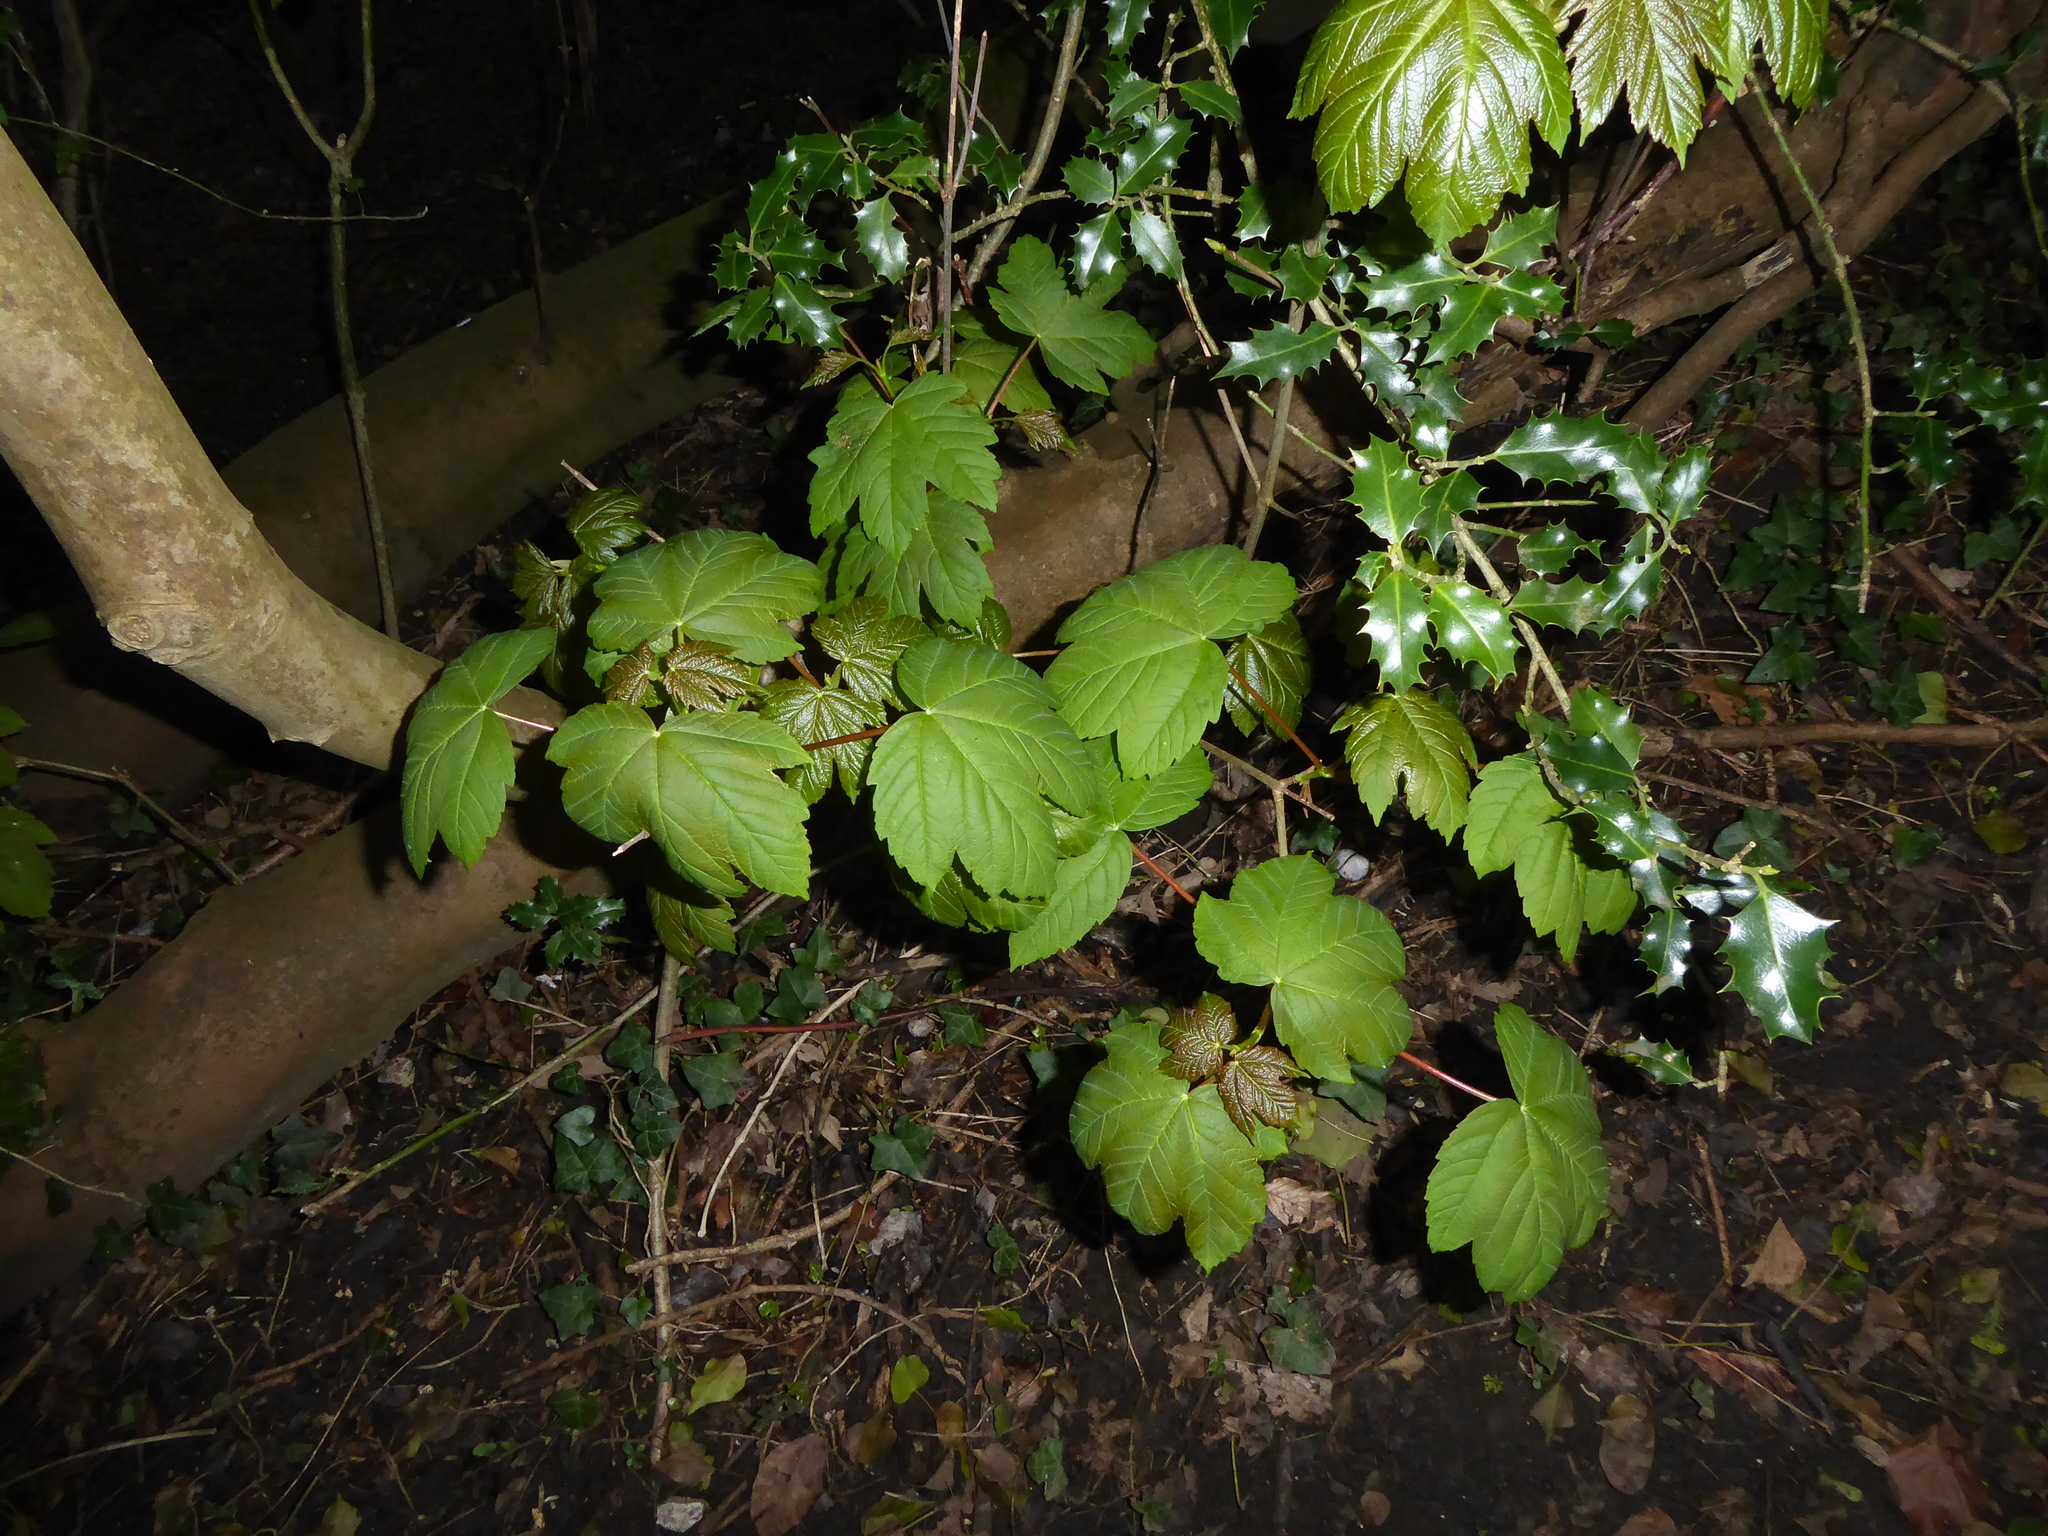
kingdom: Plantae
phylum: Tracheophyta
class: Magnoliopsida
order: Sapindales
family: Sapindaceae
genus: Acer
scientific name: Acer pseudoplatanus
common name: Sycamore
